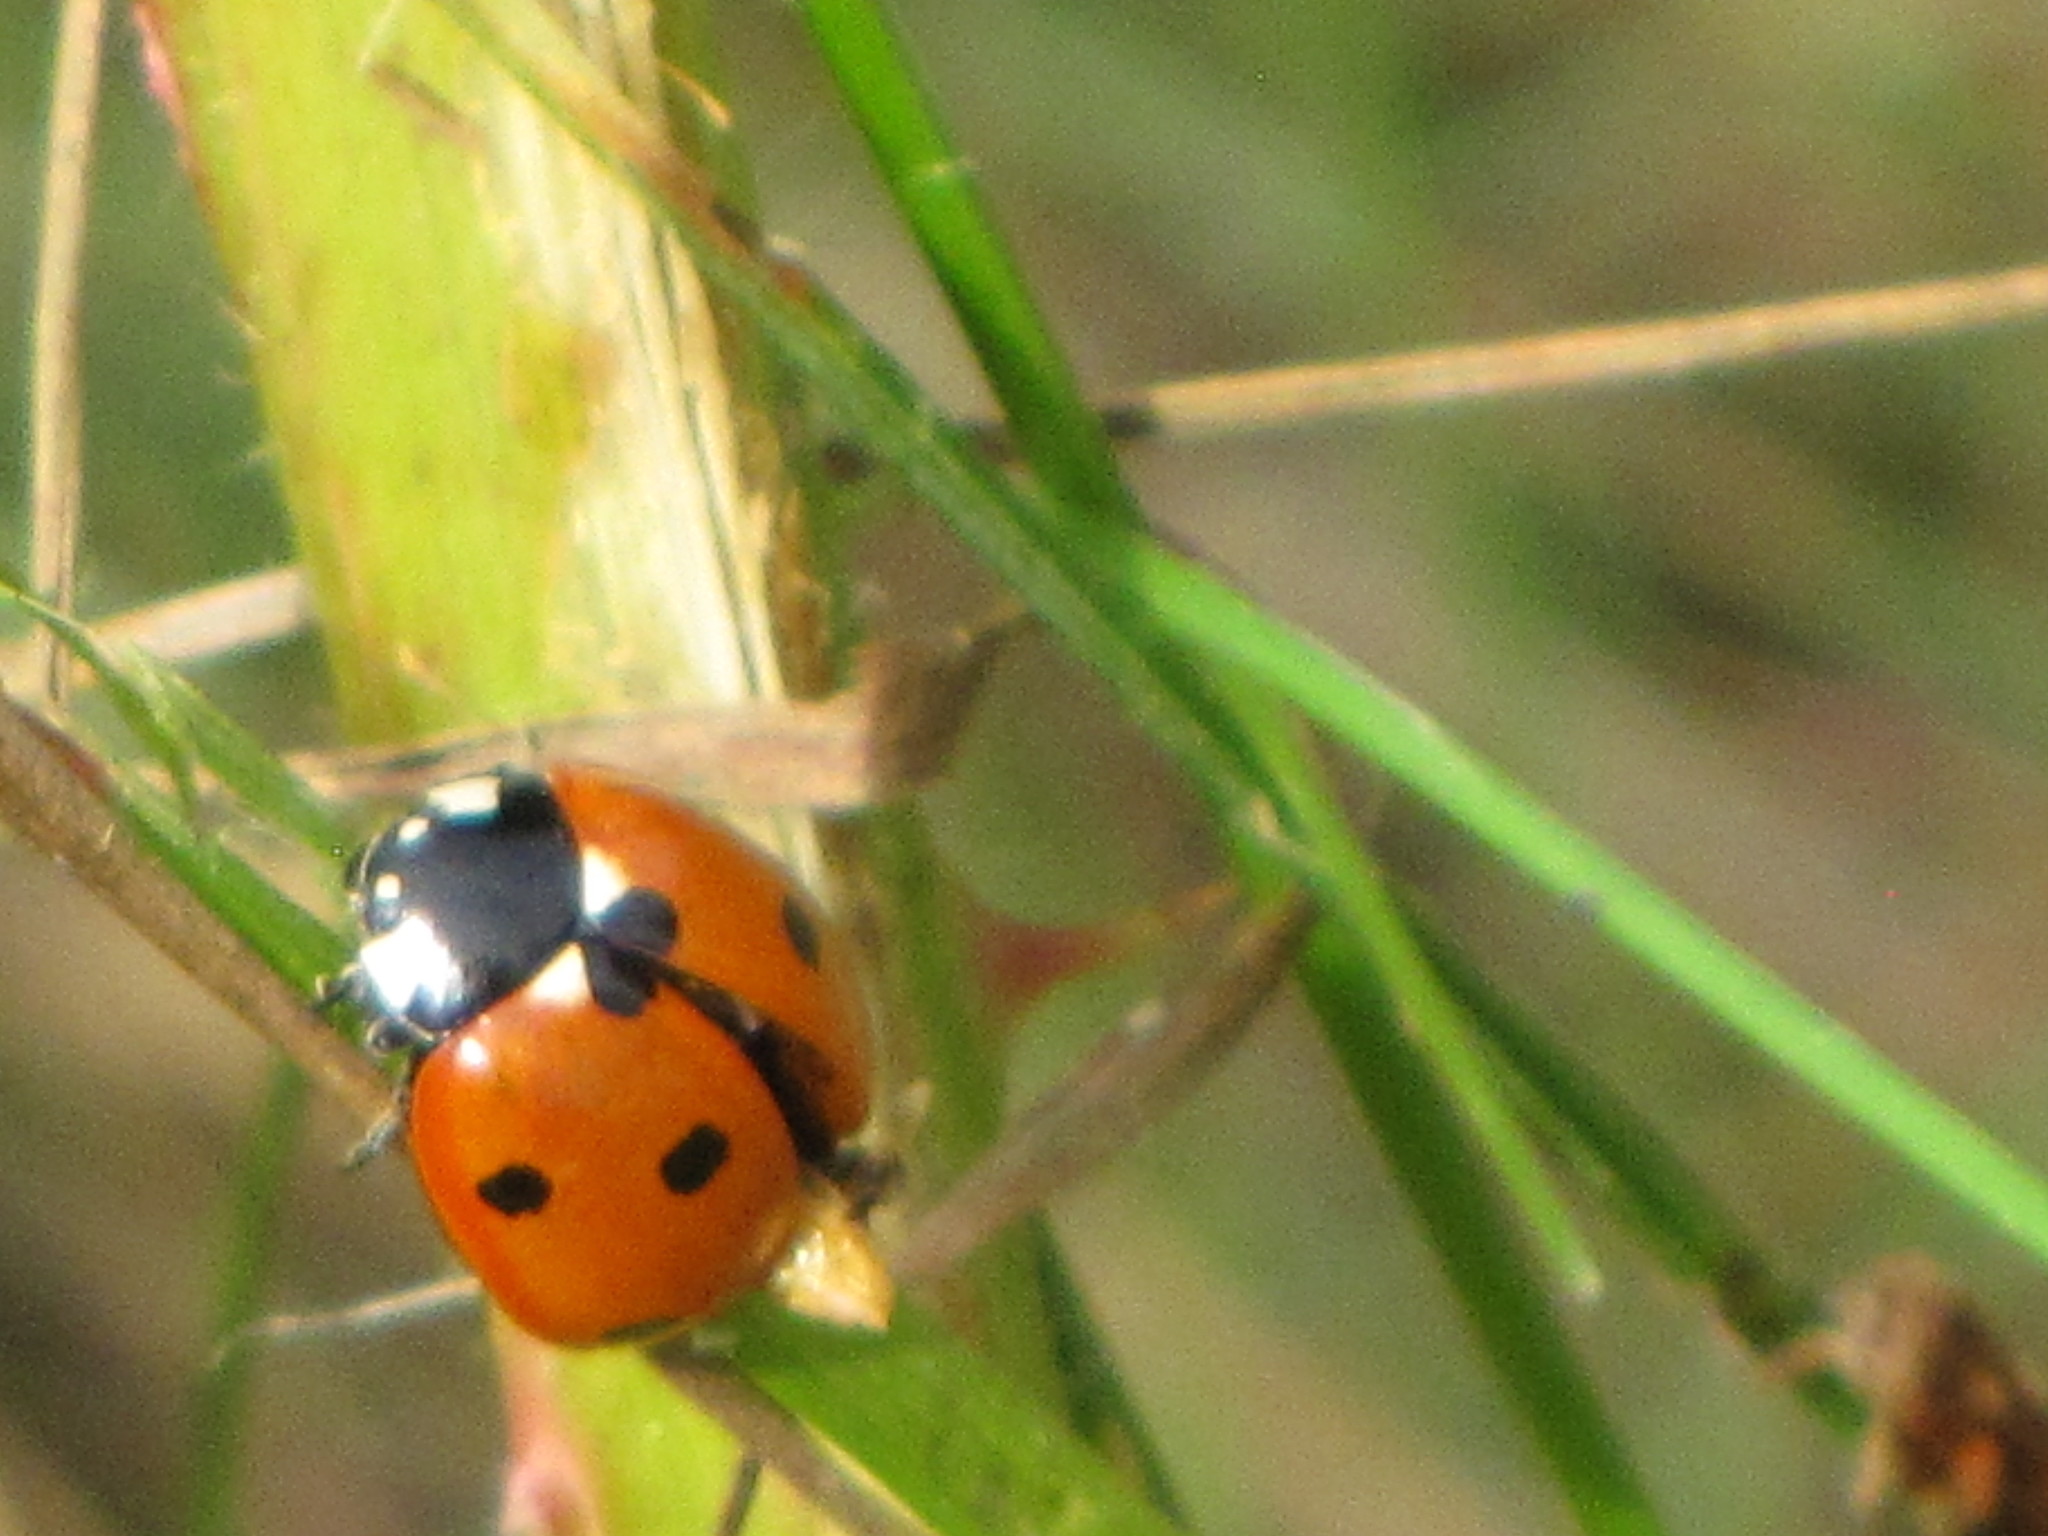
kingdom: Animalia
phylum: Arthropoda
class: Insecta
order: Coleoptera
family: Coccinellidae
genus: Coccinella
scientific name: Coccinella septempunctata
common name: Sevenspotted lady beetle
